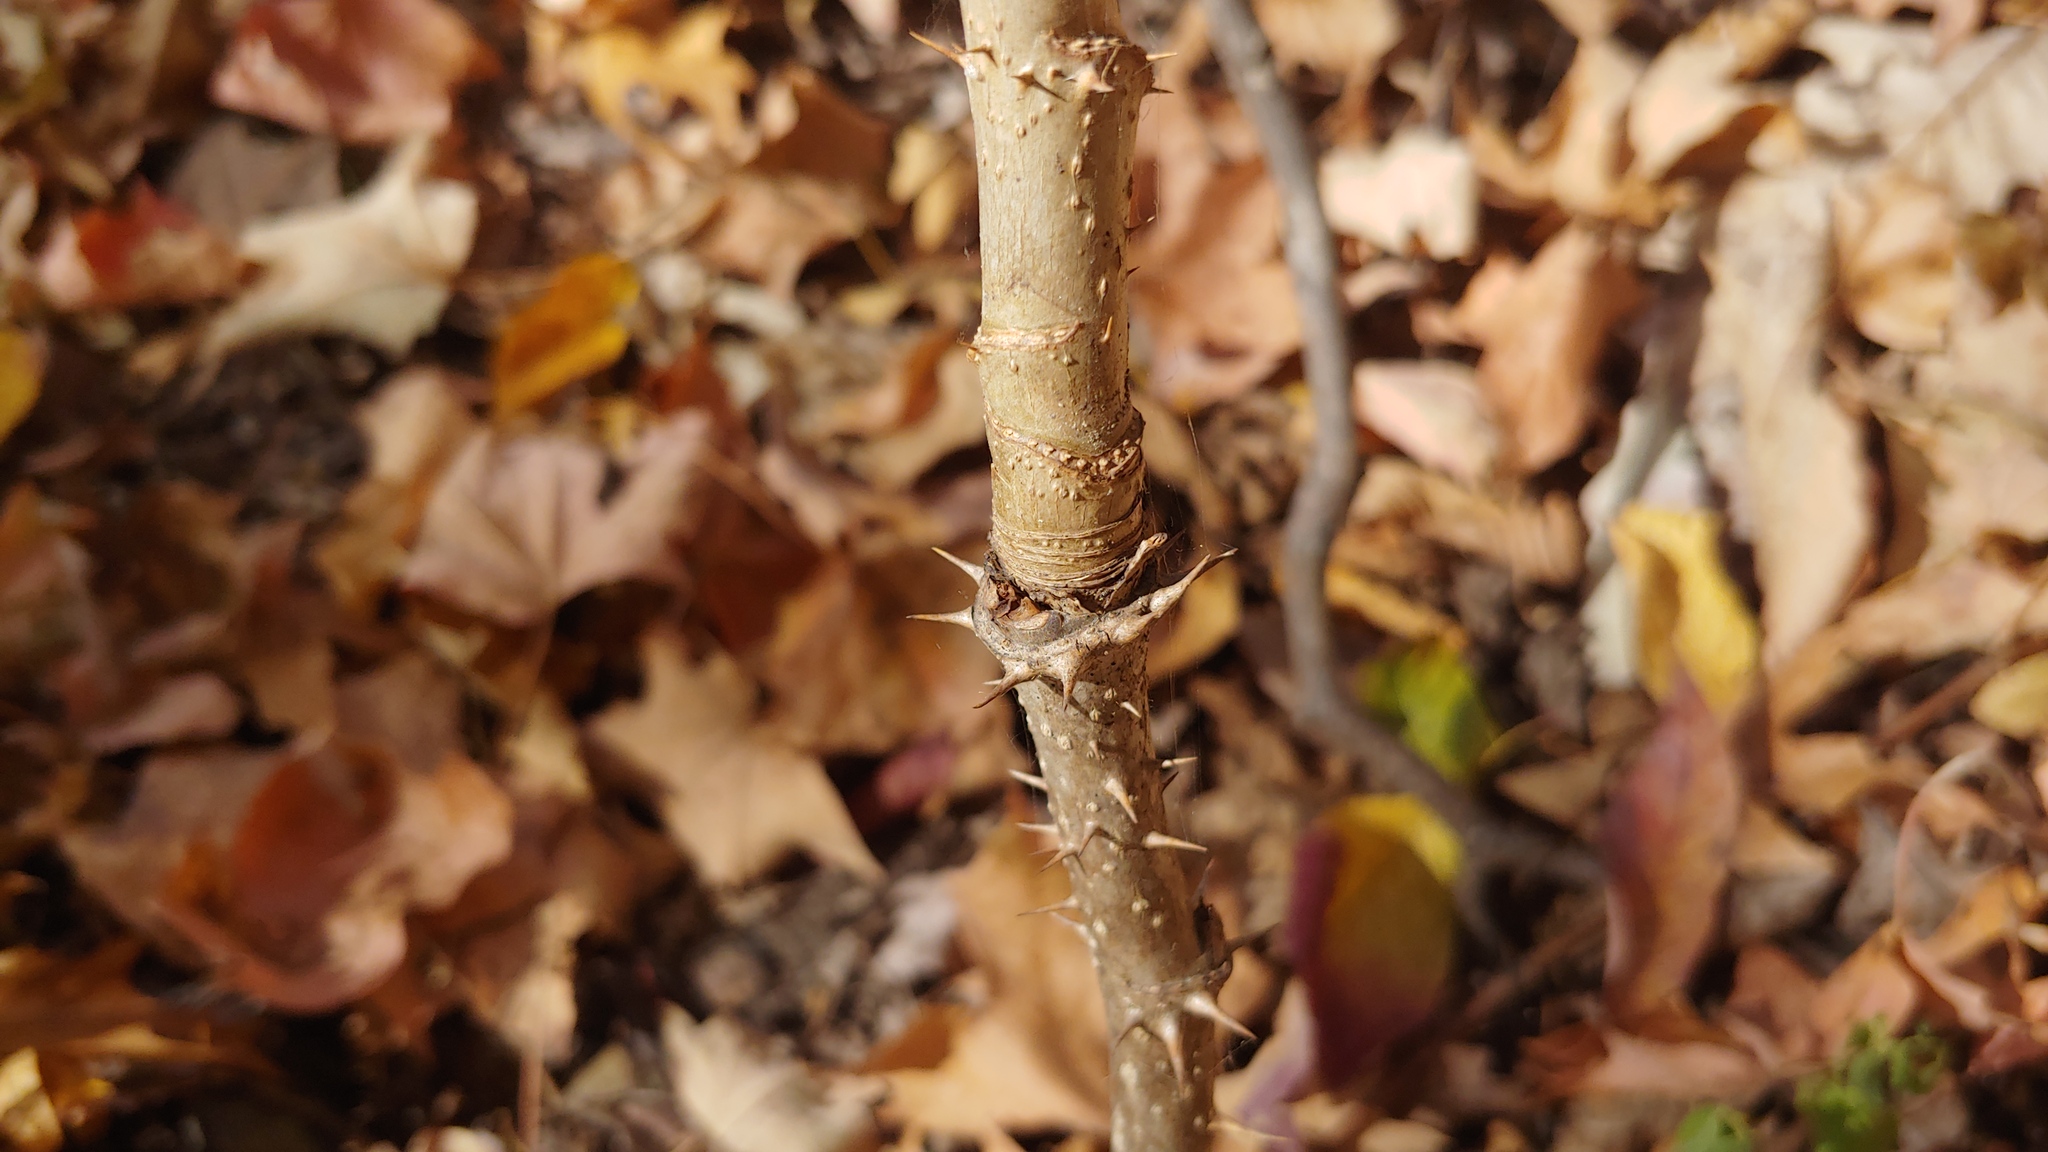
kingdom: Plantae
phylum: Tracheophyta
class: Magnoliopsida
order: Apiales
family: Araliaceae
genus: Aralia
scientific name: Aralia spinosa
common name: Hercules'-club
